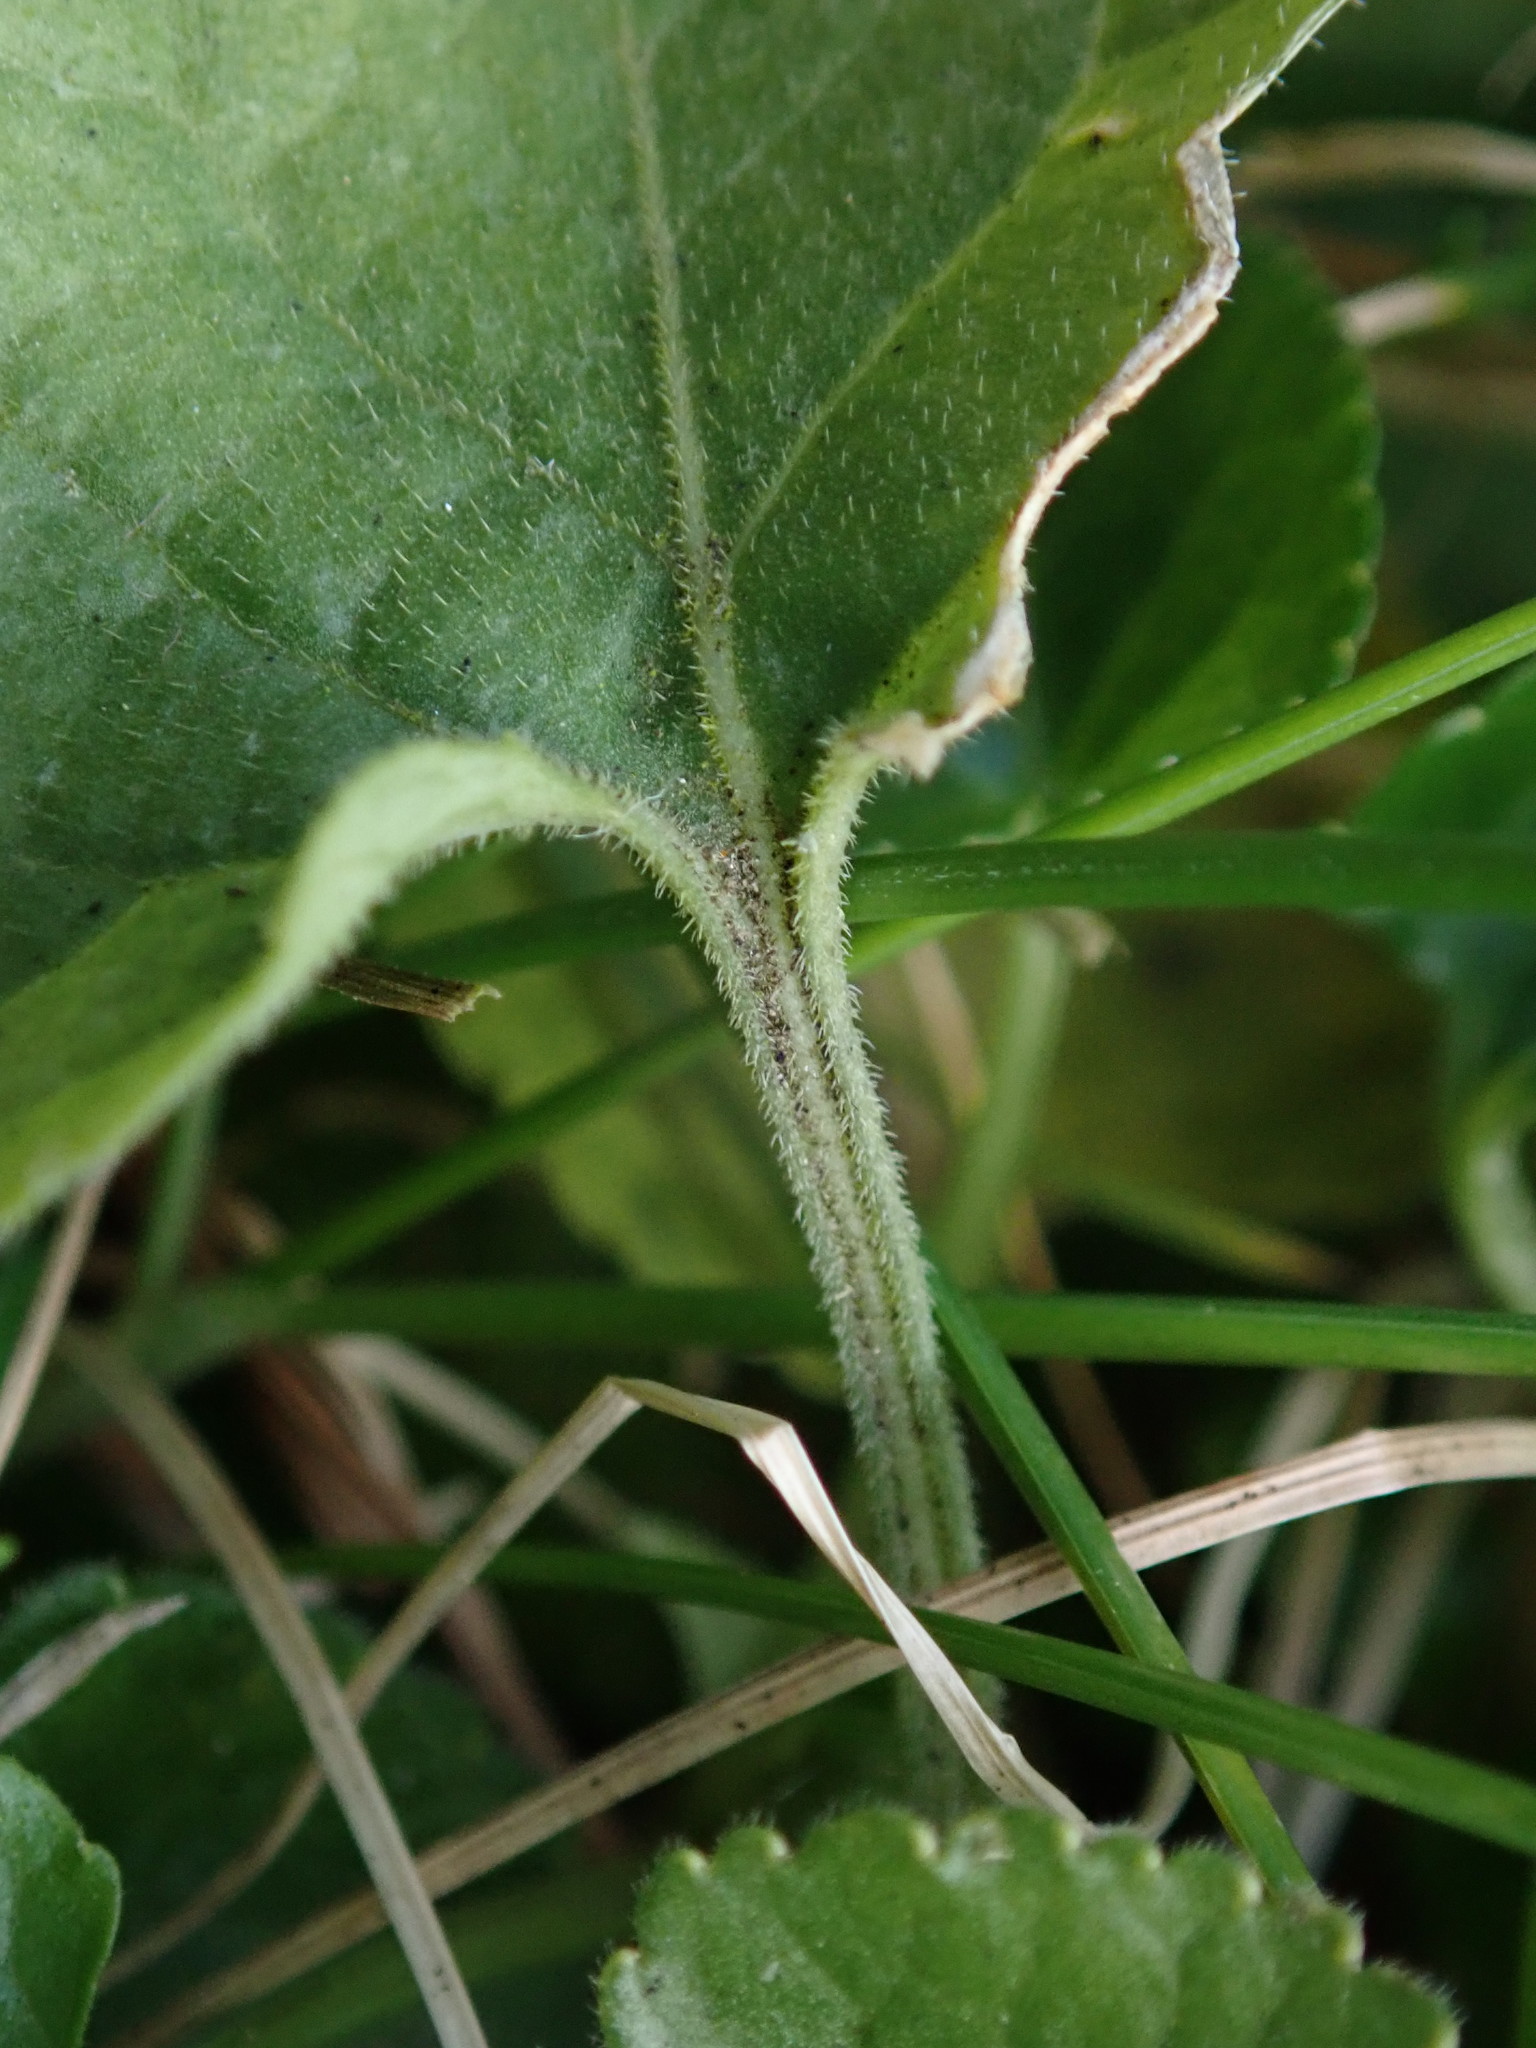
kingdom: Plantae
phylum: Tracheophyta
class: Magnoliopsida
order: Malpighiales
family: Violaceae
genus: Viola
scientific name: Viola odorata
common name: Sweet violet
